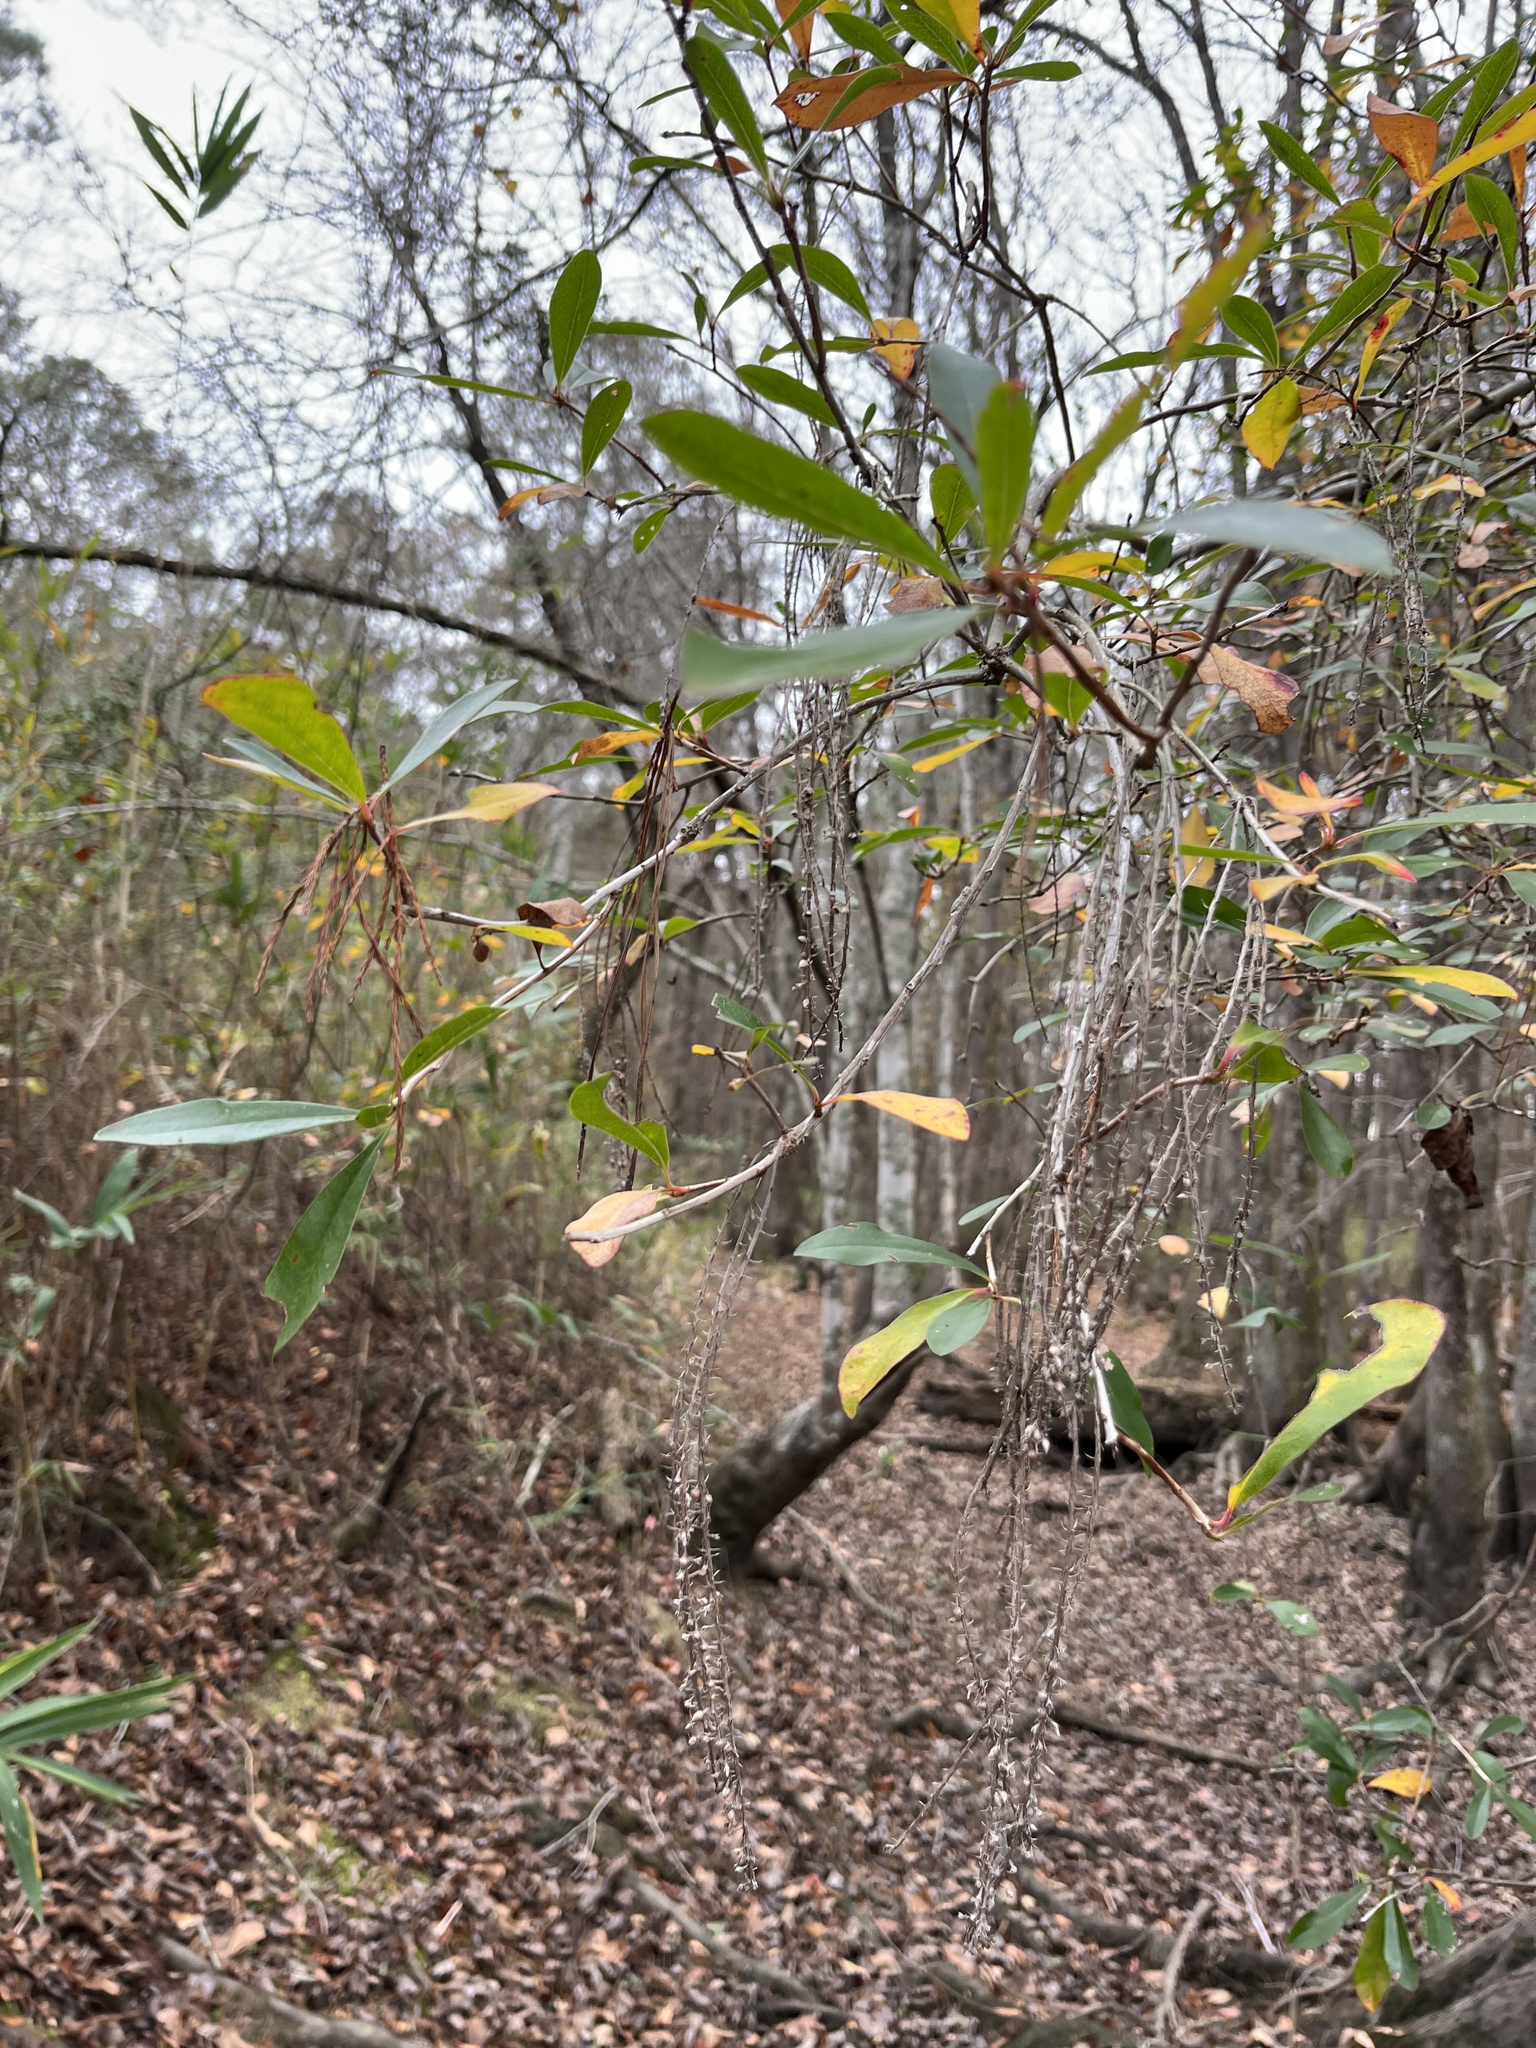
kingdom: Plantae
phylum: Tracheophyta
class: Magnoliopsida
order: Ericales
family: Cyrillaceae
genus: Cyrilla
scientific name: Cyrilla racemiflora
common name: Black titi
